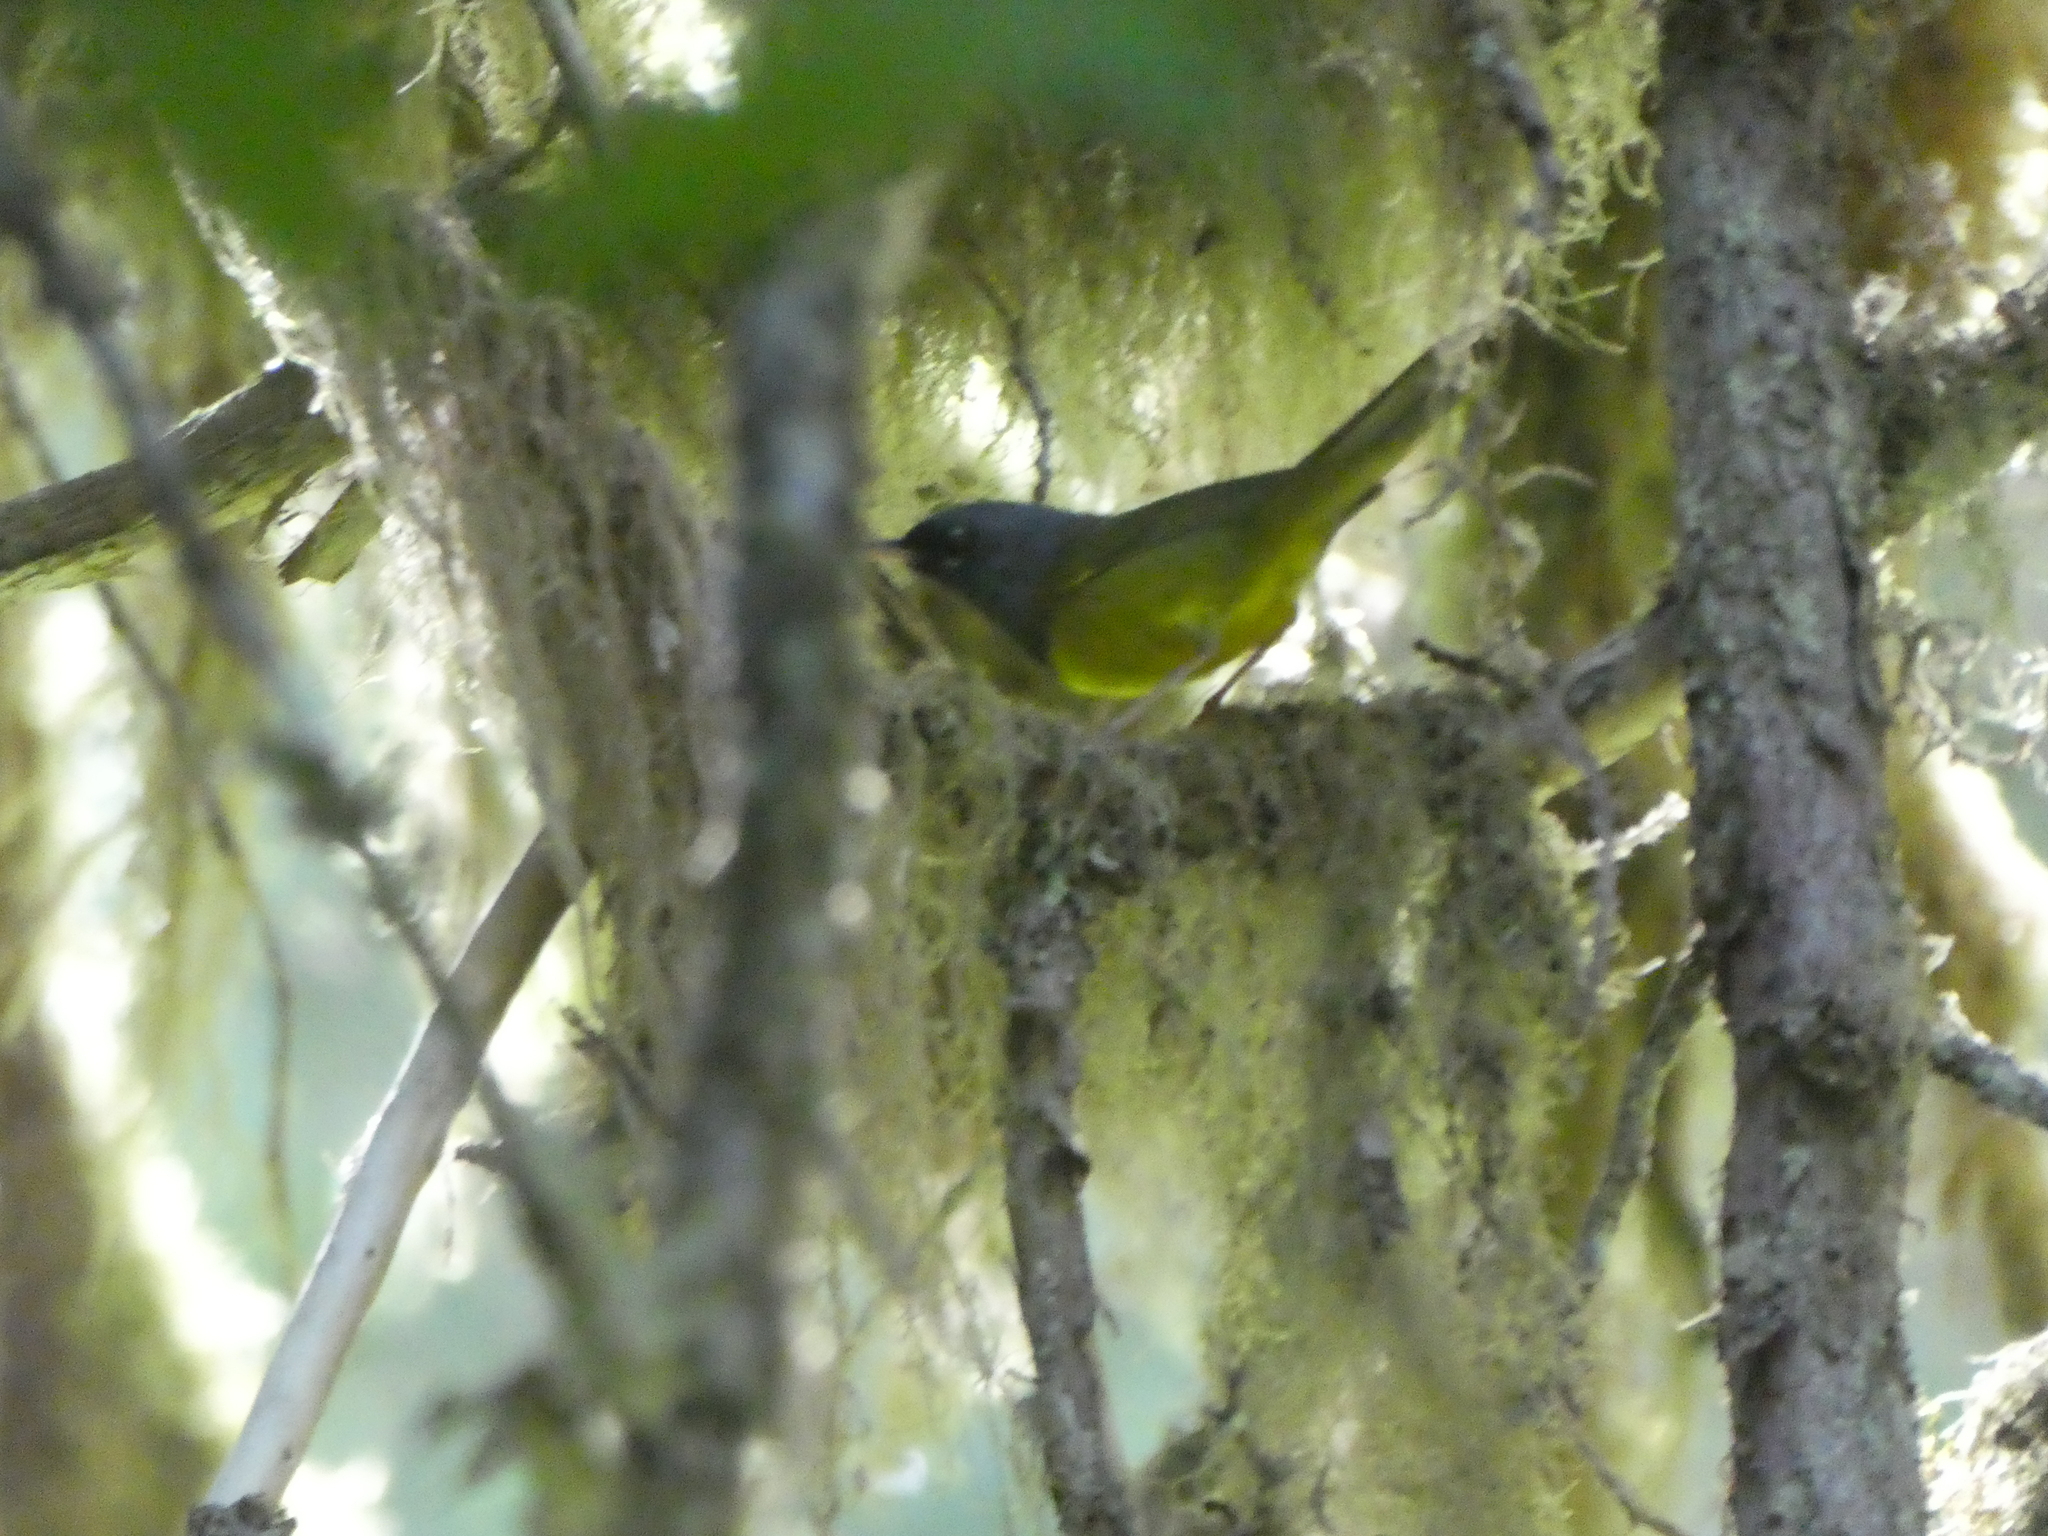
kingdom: Animalia
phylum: Chordata
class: Aves
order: Passeriformes
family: Parulidae
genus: Geothlypis
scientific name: Geothlypis tolmiei
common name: Macgillivray's warbler
